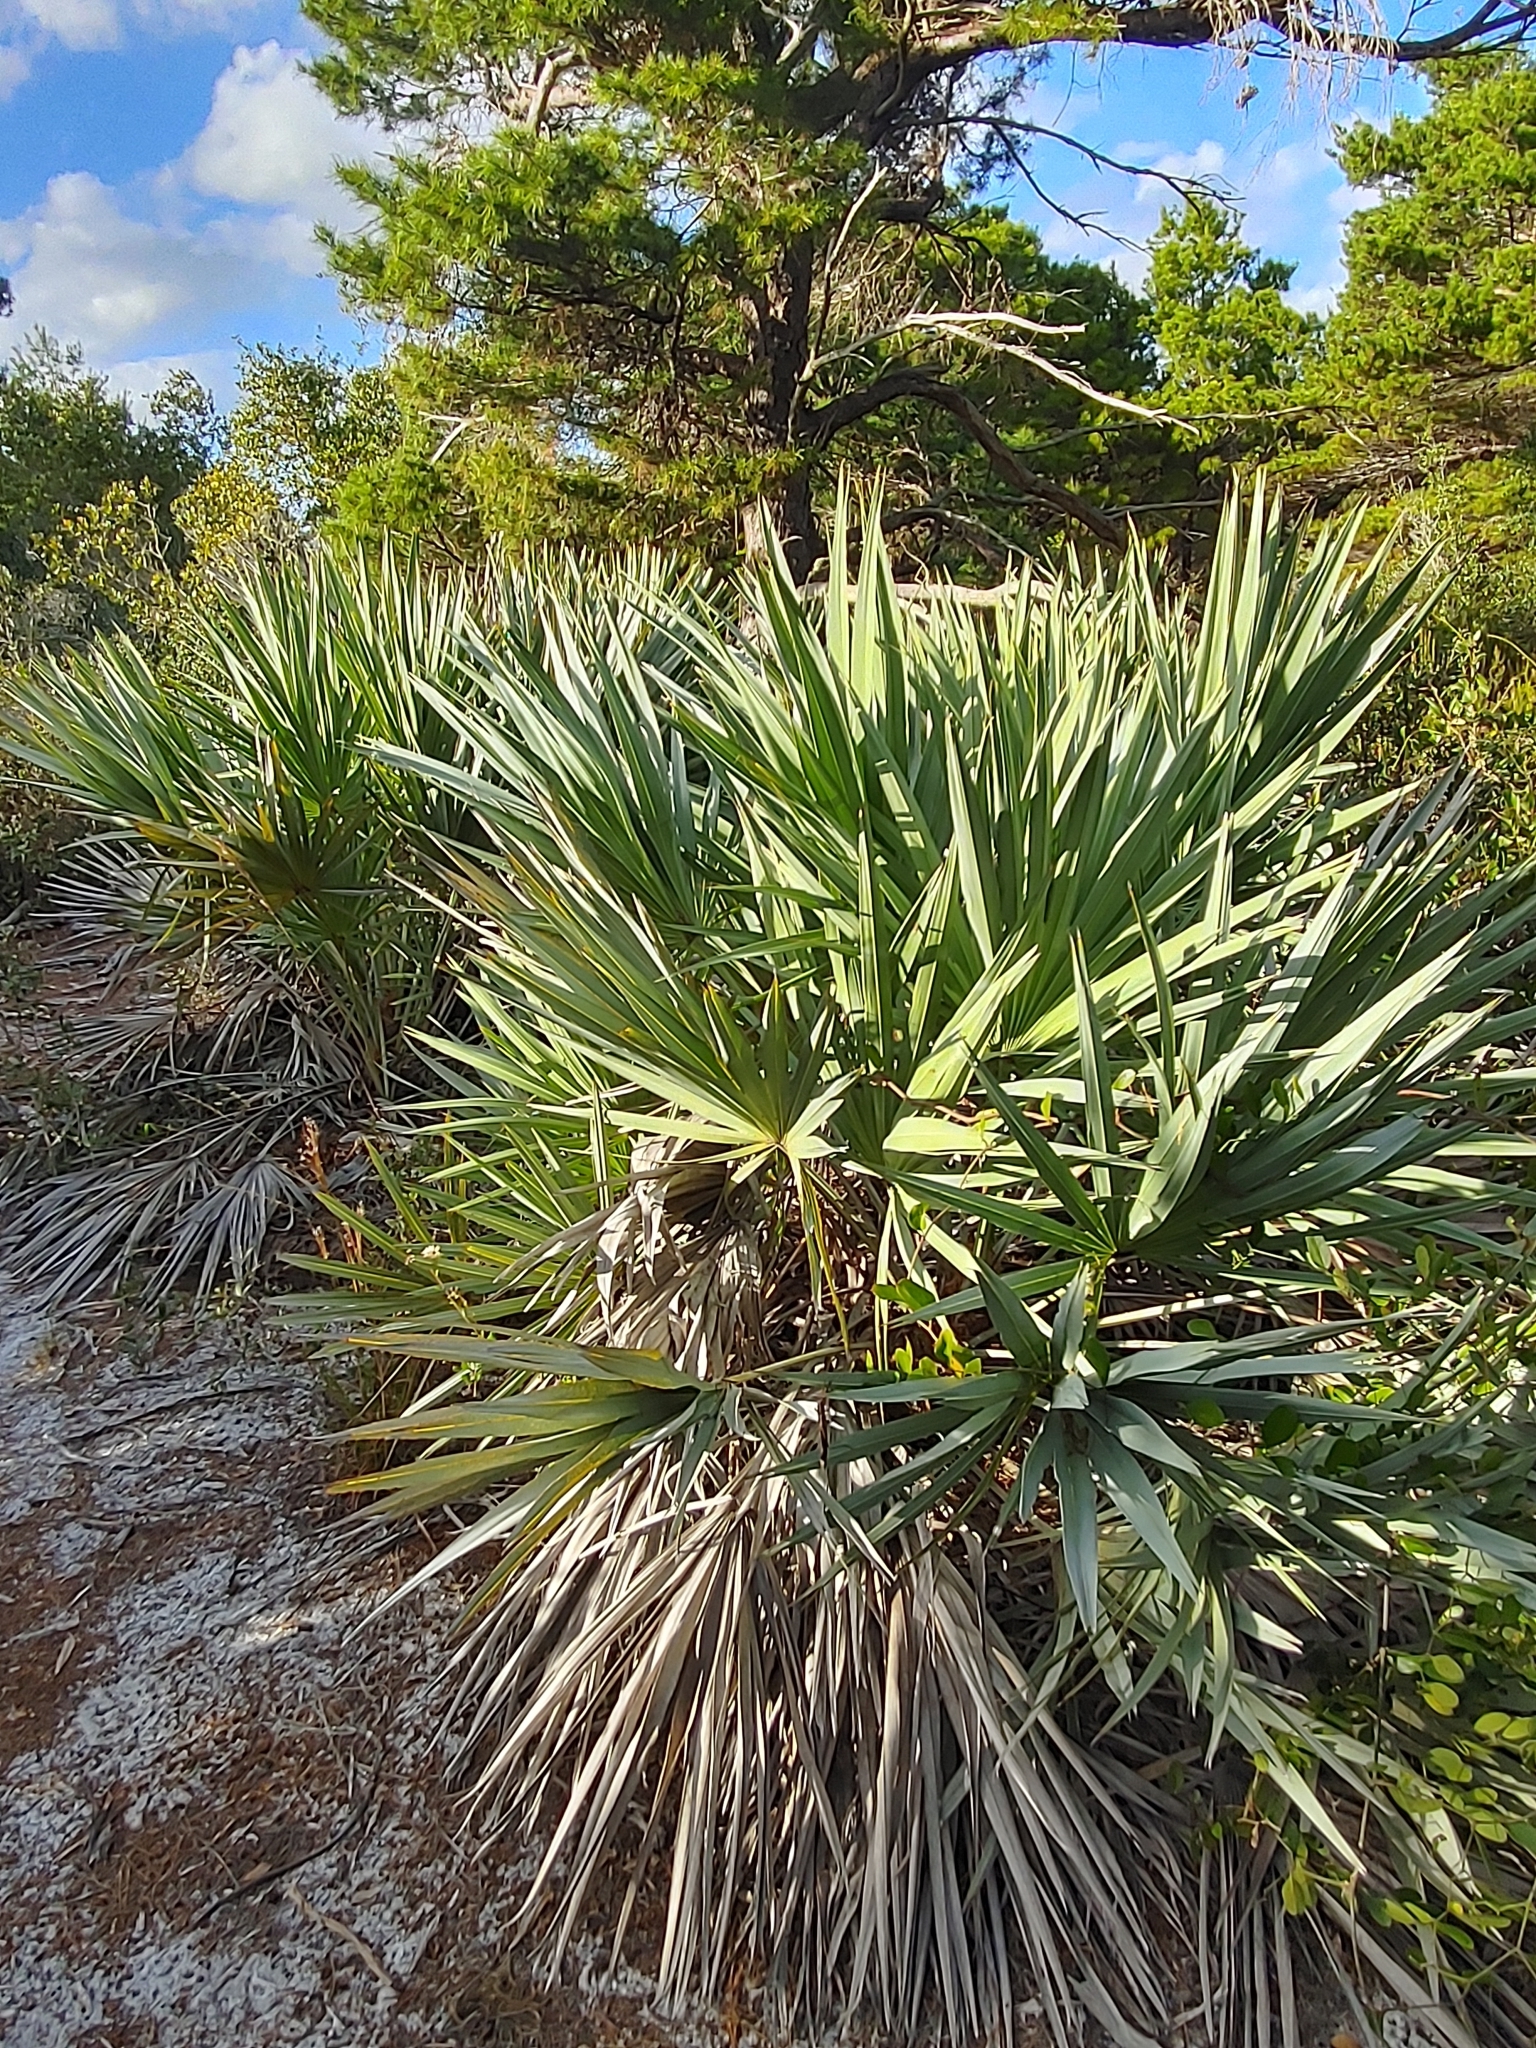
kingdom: Plantae
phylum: Tracheophyta
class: Liliopsida
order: Arecales
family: Arecaceae
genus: Serenoa
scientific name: Serenoa repens
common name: Saw-palmetto
